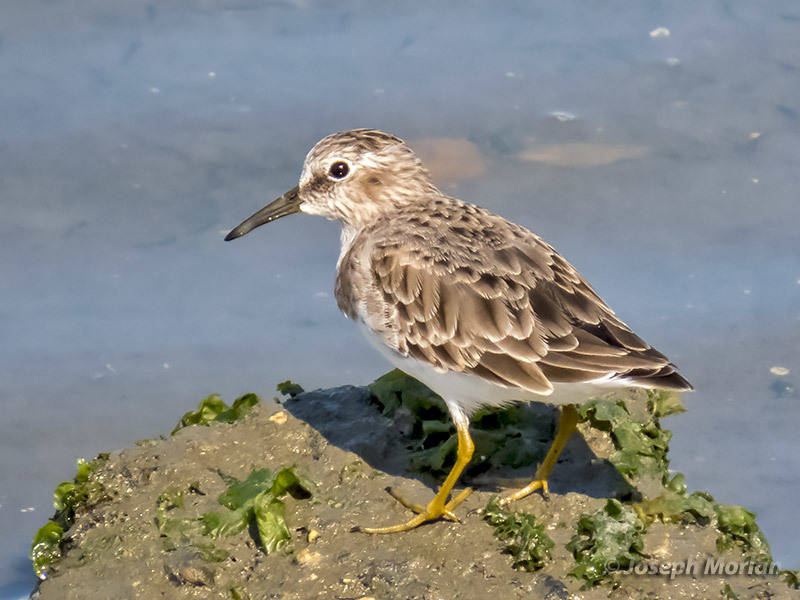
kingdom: Animalia
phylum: Chordata
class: Aves
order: Charadriiformes
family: Scolopacidae
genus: Calidris
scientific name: Calidris minutilla
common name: Least sandpiper
